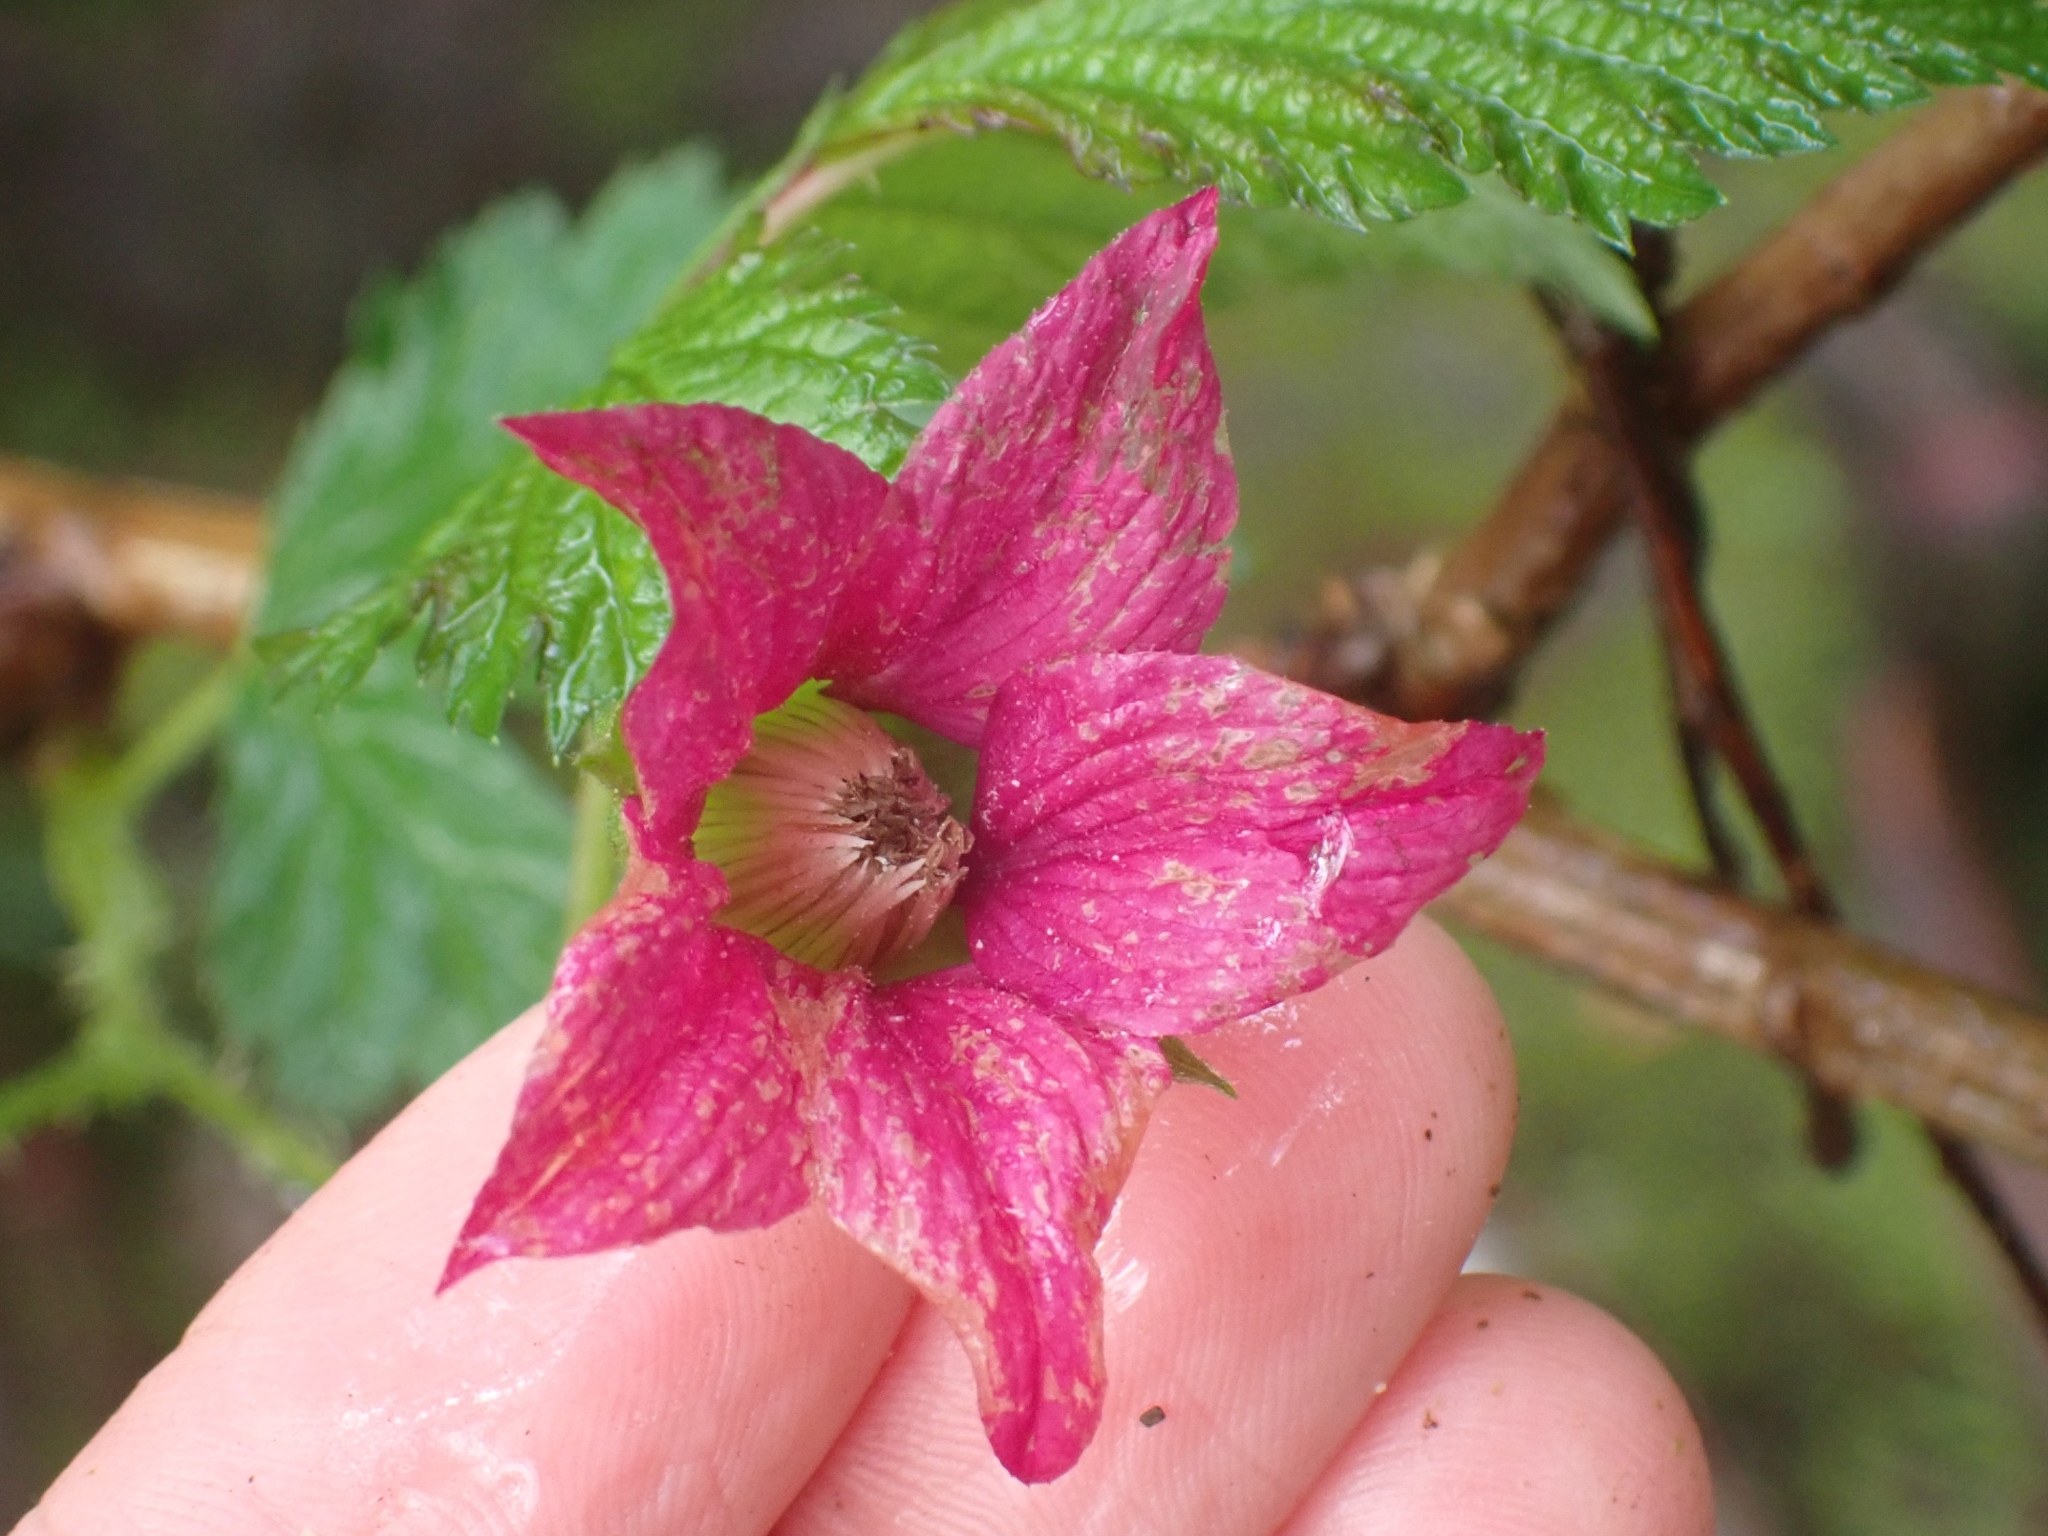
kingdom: Plantae
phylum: Tracheophyta
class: Magnoliopsida
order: Rosales
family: Rosaceae
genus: Rubus
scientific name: Rubus spectabilis
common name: Salmonberry
